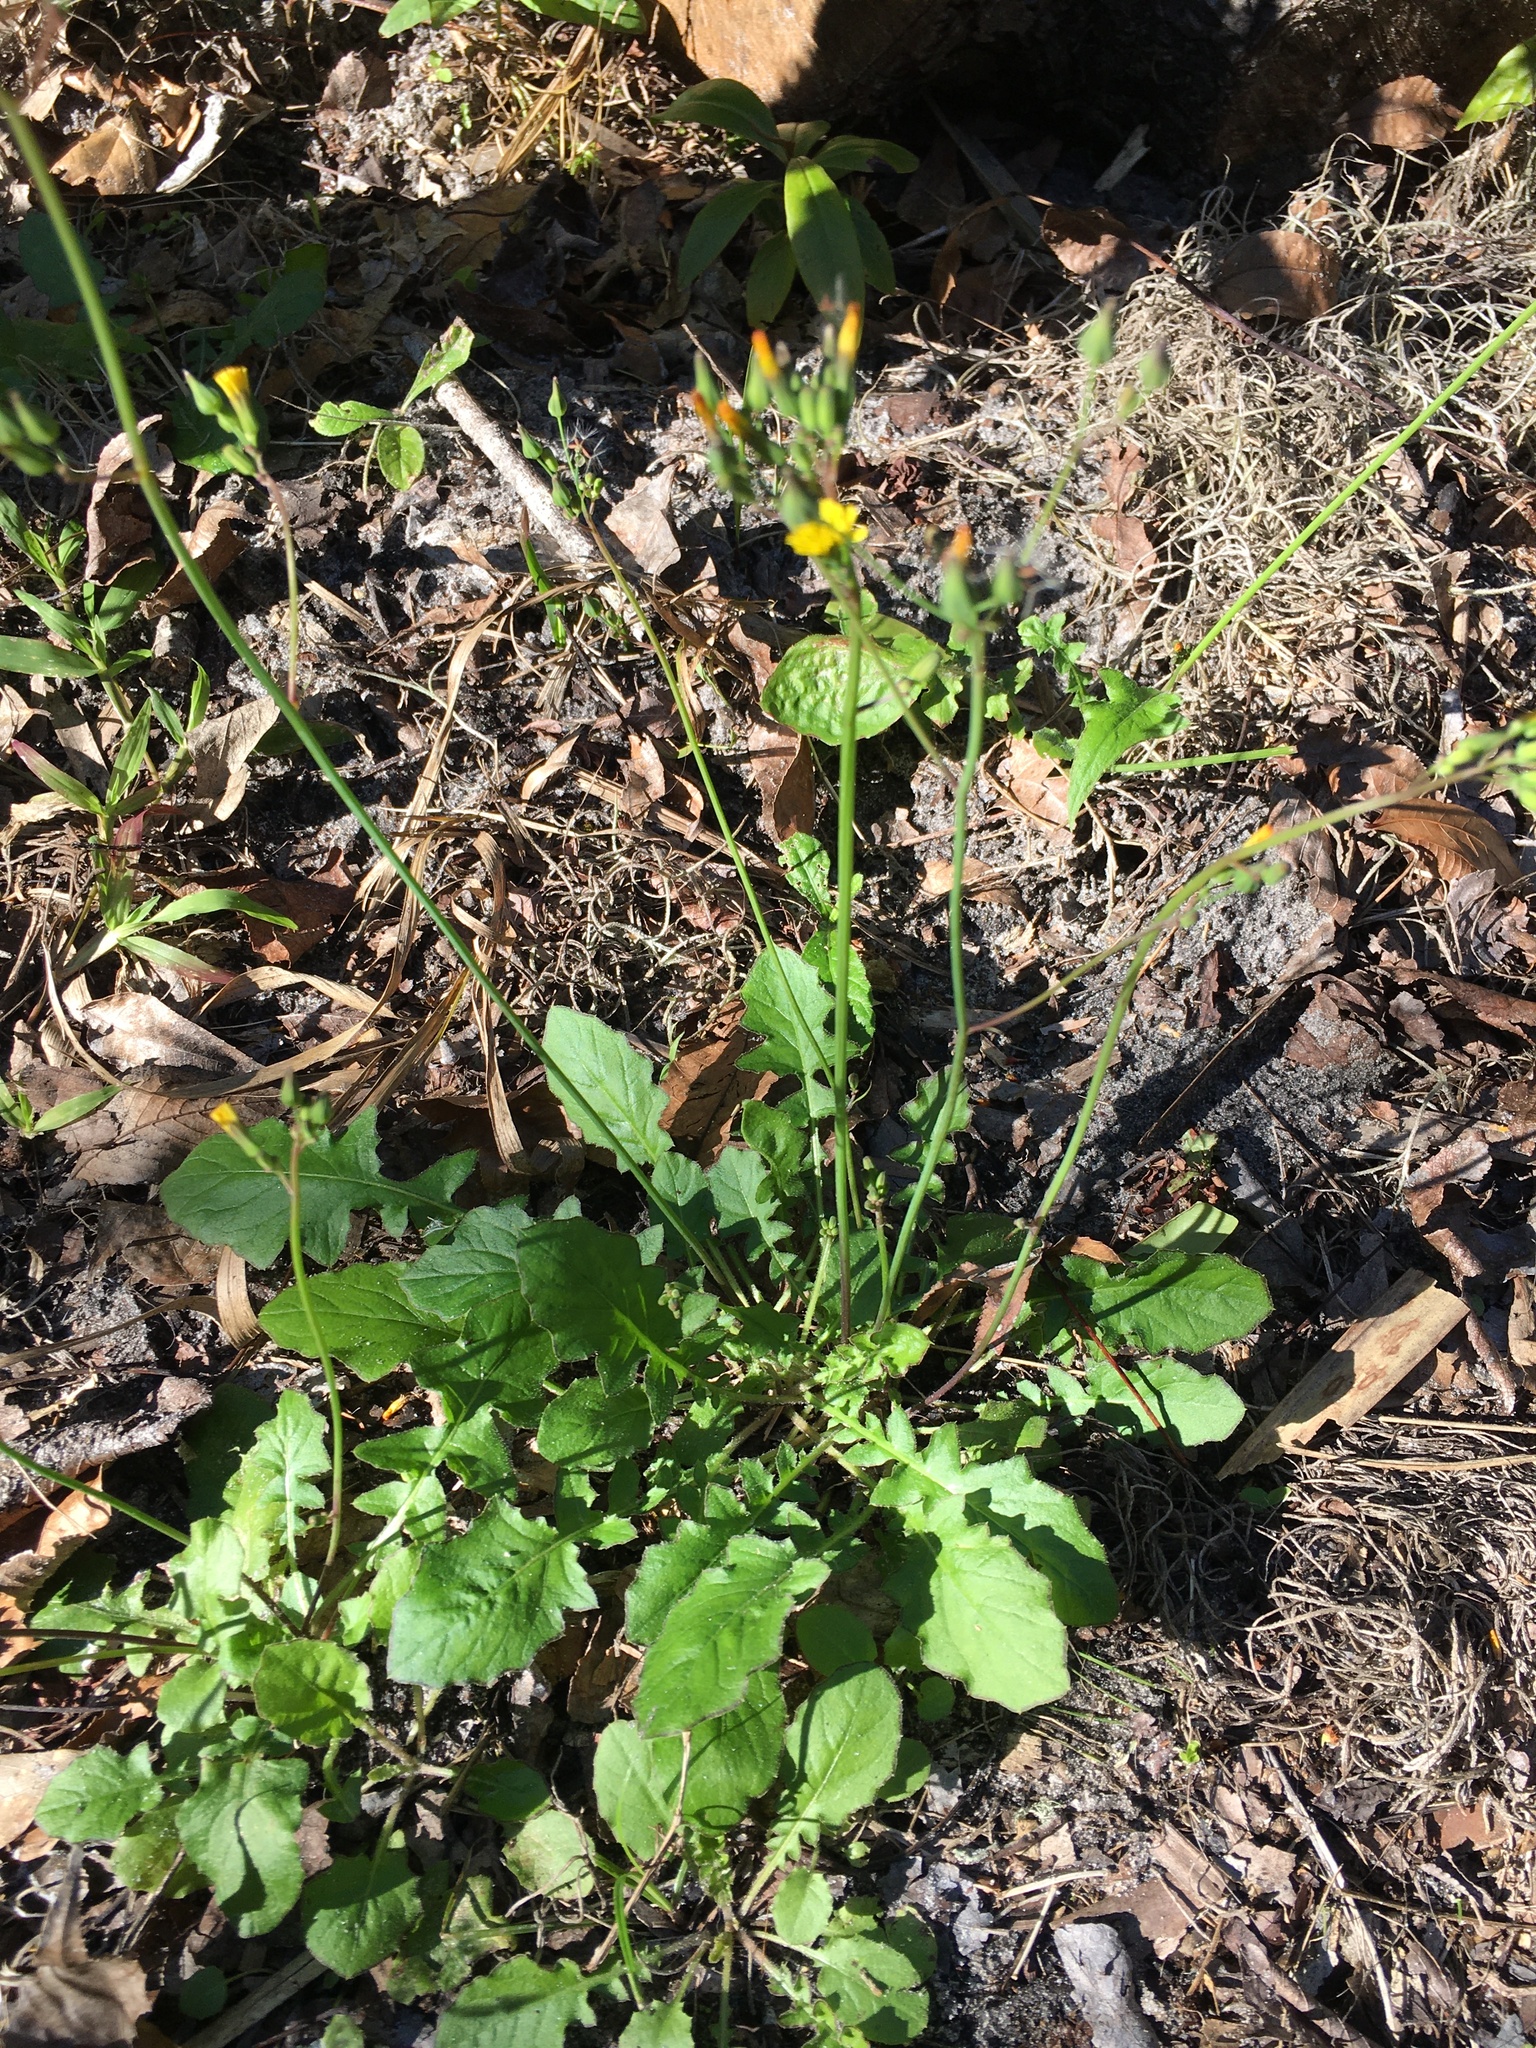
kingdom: Plantae
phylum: Tracheophyta
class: Magnoliopsida
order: Asterales
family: Asteraceae
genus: Youngia
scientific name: Youngia japonica
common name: Oriental false hawksbeard
